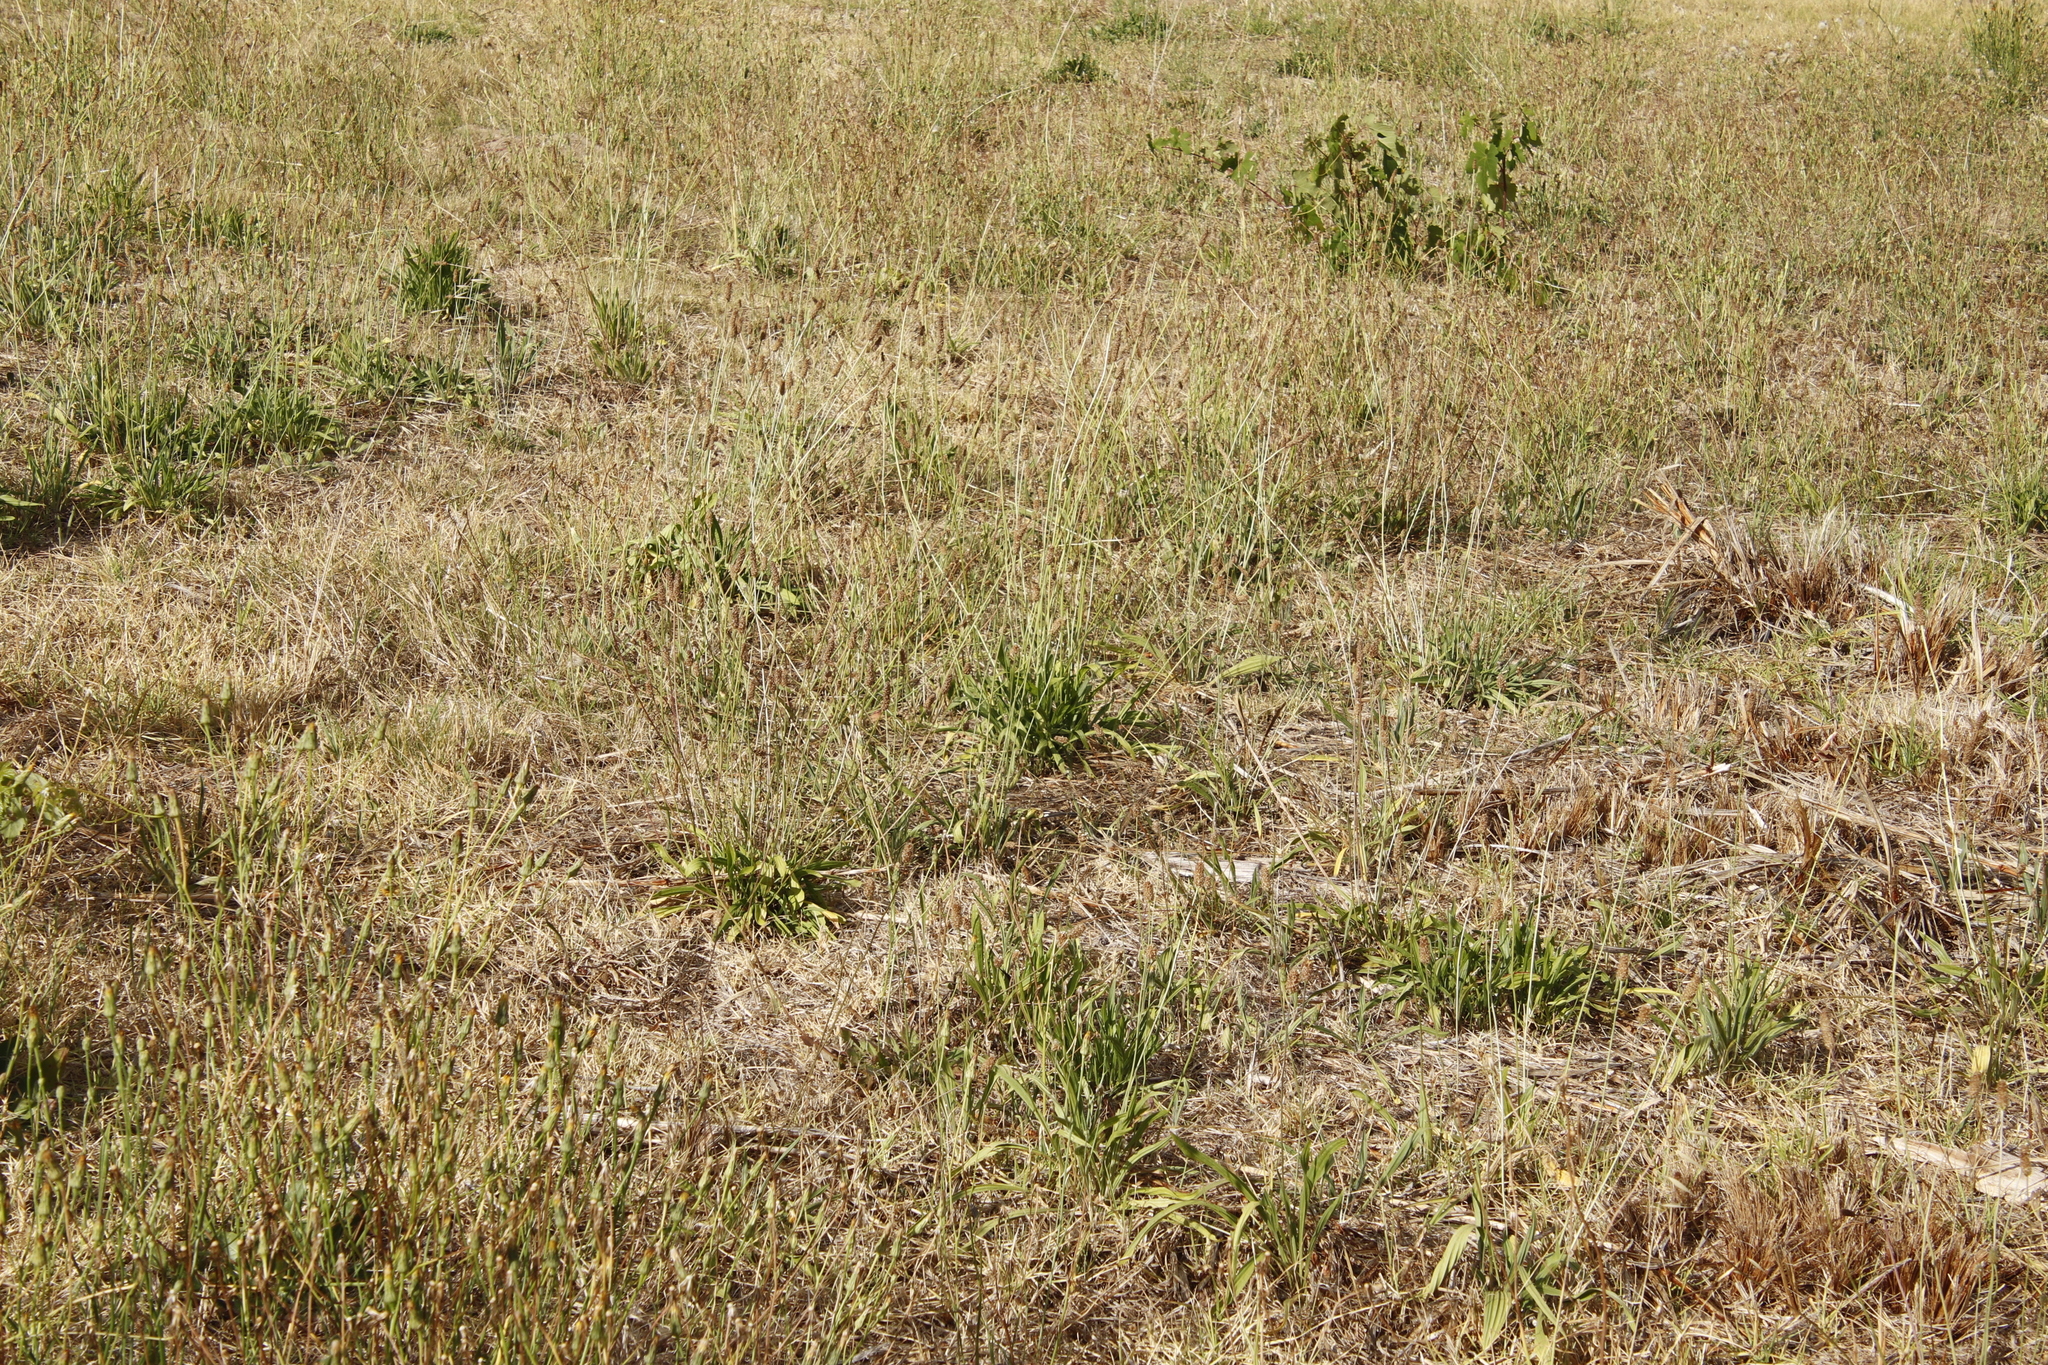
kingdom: Plantae
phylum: Tracheophyta
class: Magnoliopsida
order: Lamiales
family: Plantaginaceae
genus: Plantago
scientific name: Plantago lanceolata
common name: Ribwort plantain
